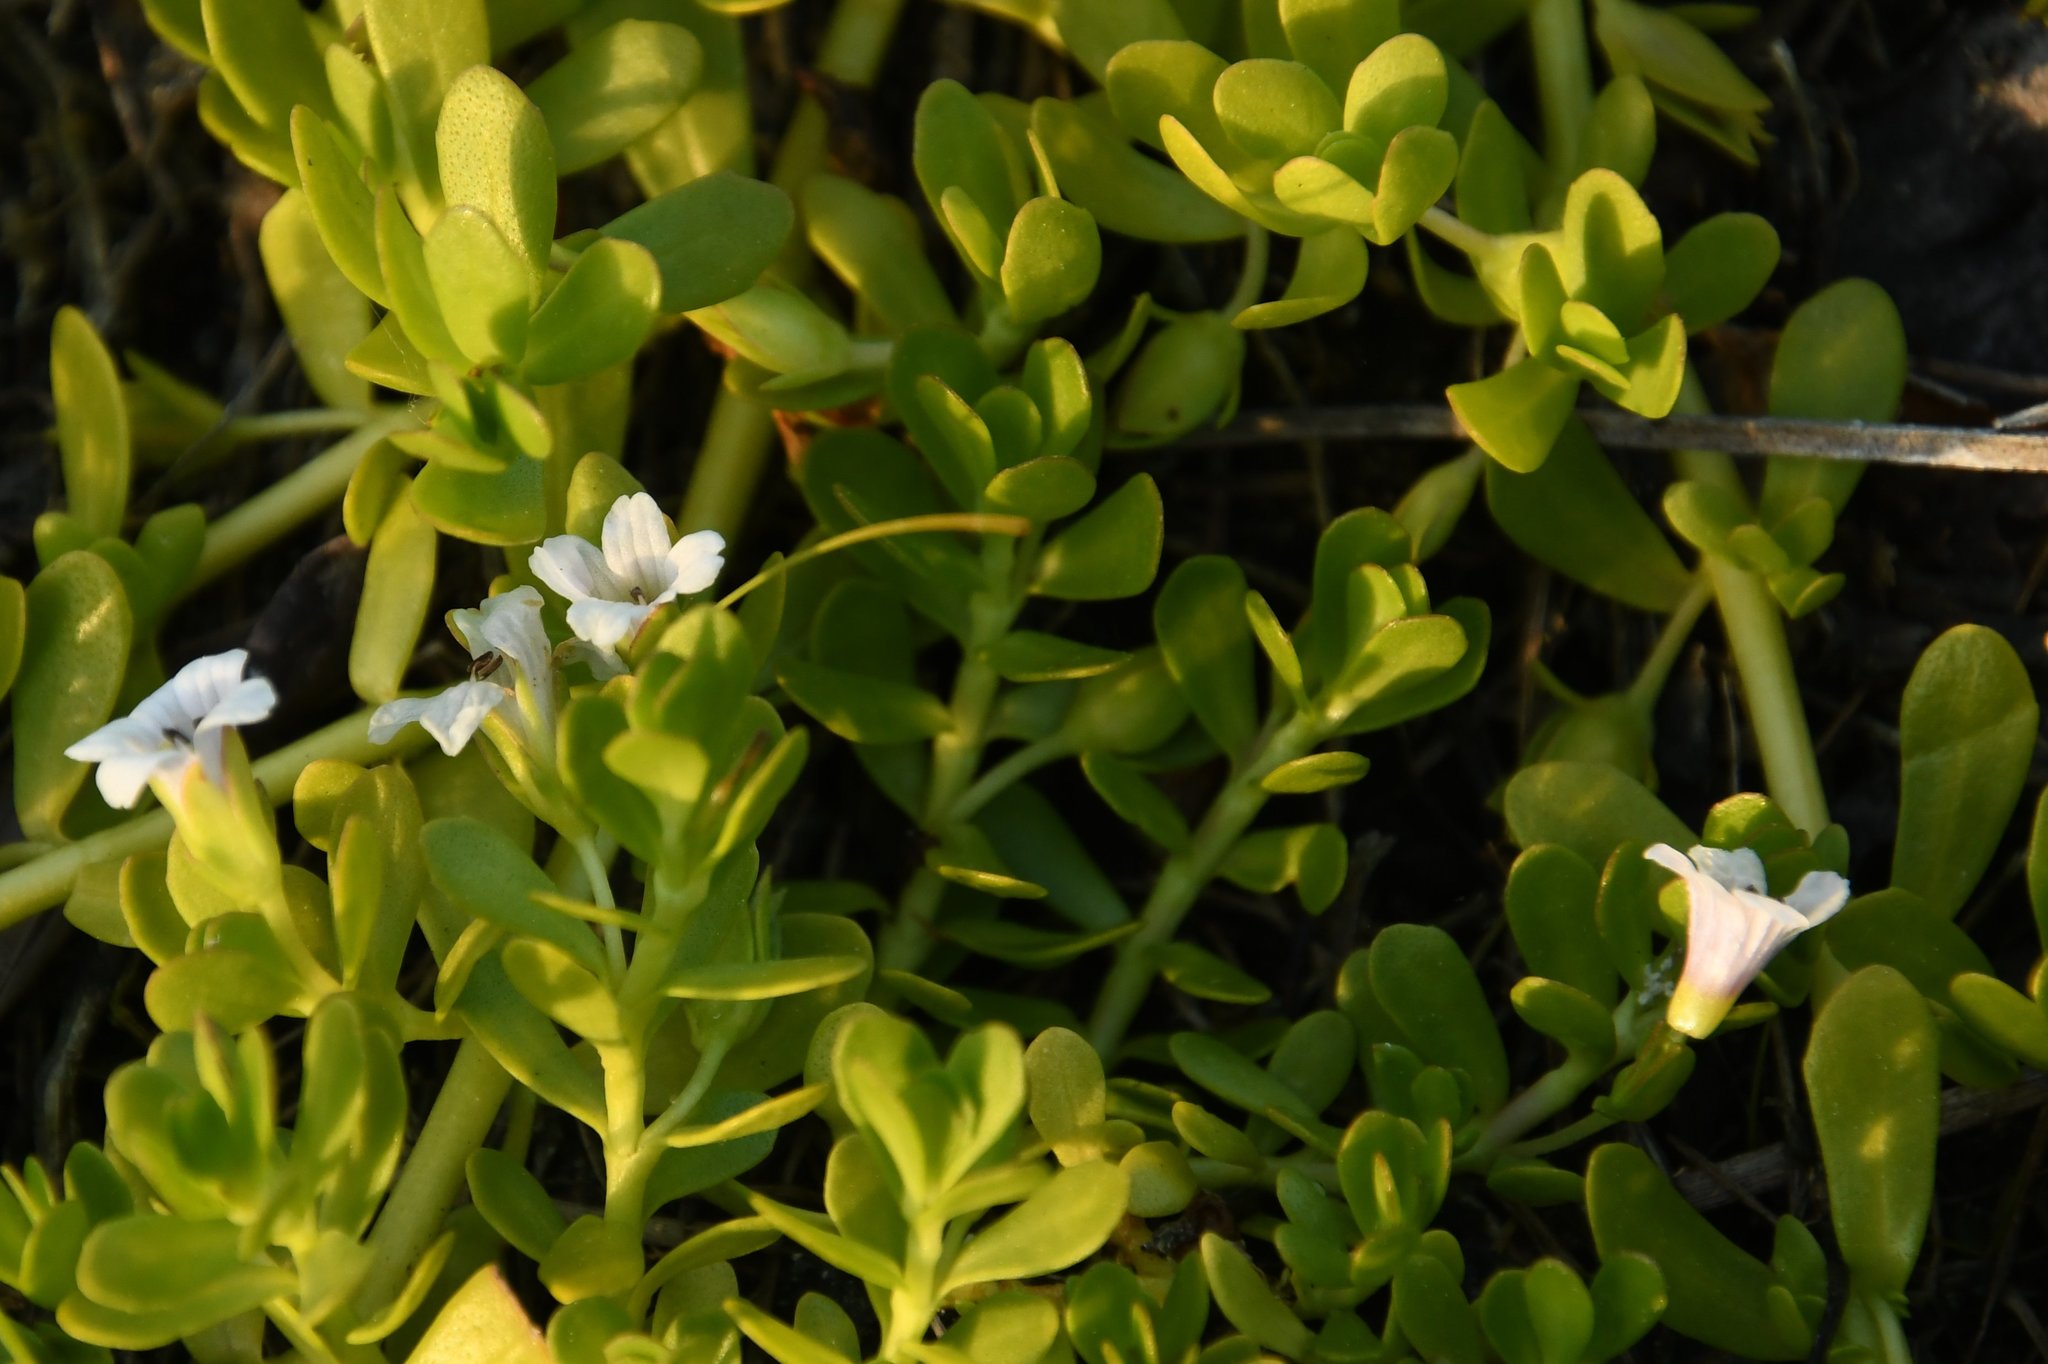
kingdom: Plantae
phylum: Tracheophyta
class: Magnoliopsida
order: Lamiales
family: Plantaginaceae
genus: Bacopa
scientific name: Bacopa monnieri
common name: Indian-pennywort
